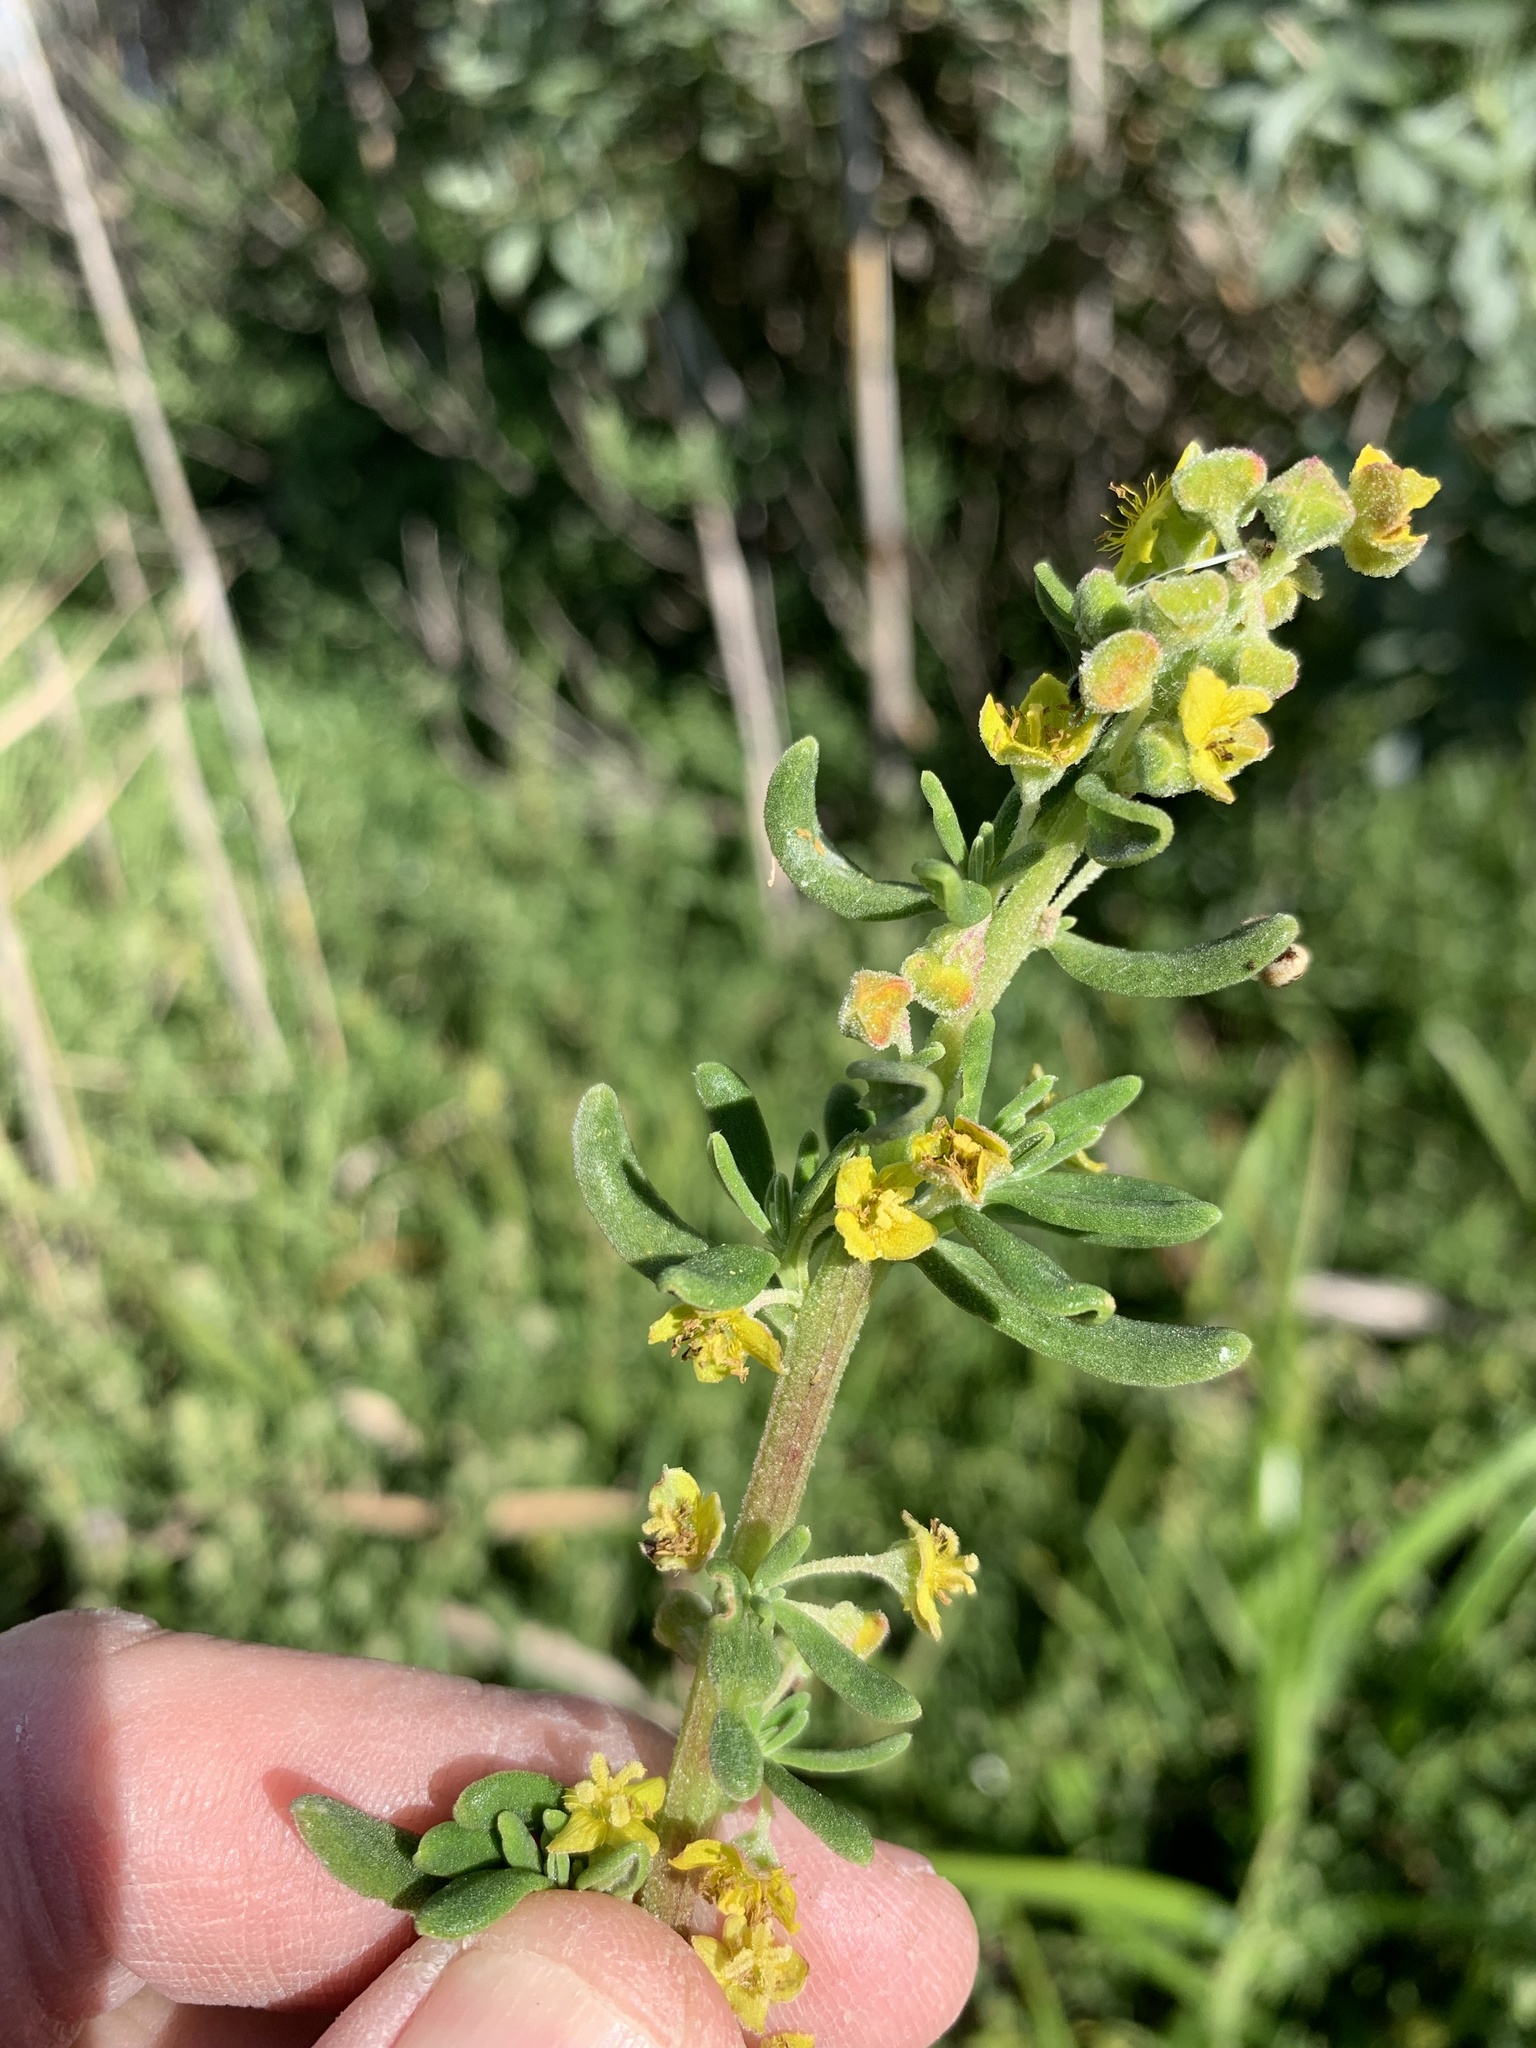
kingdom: Plantae
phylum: Tracheophyta
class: Magnoliopsida
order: Caryophyllales
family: Aizoaceae
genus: Tetragonia
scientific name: Tetragonia fruticosa
